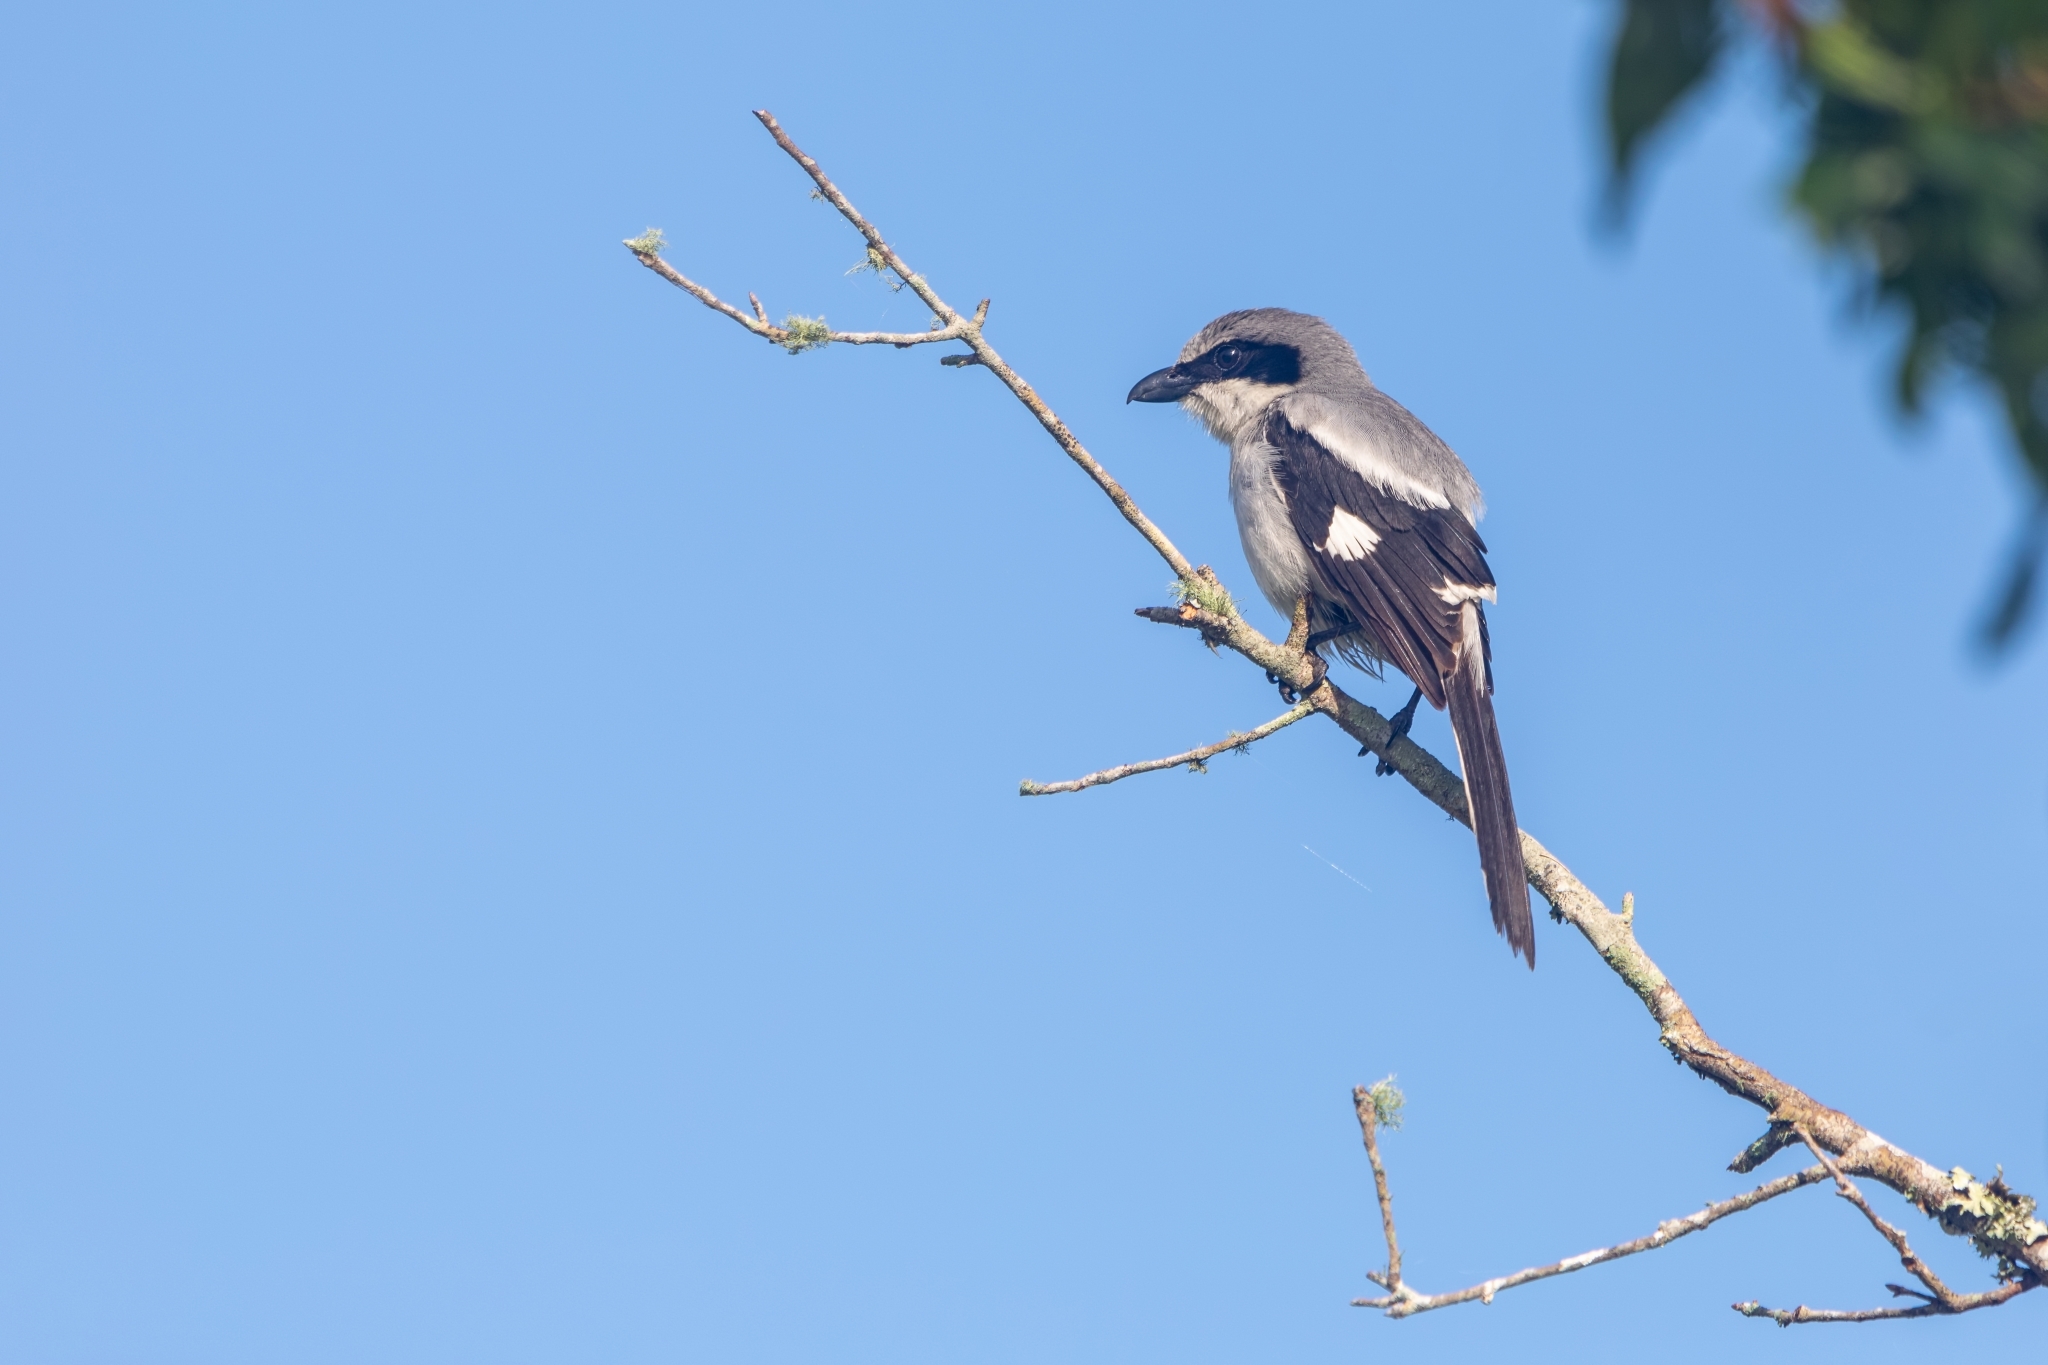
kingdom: Animalia
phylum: Chordata
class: Aves
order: Passeriformes
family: Laniidae
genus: Lanius
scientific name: Lanius ludovicianus
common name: Loggerhead shrike
